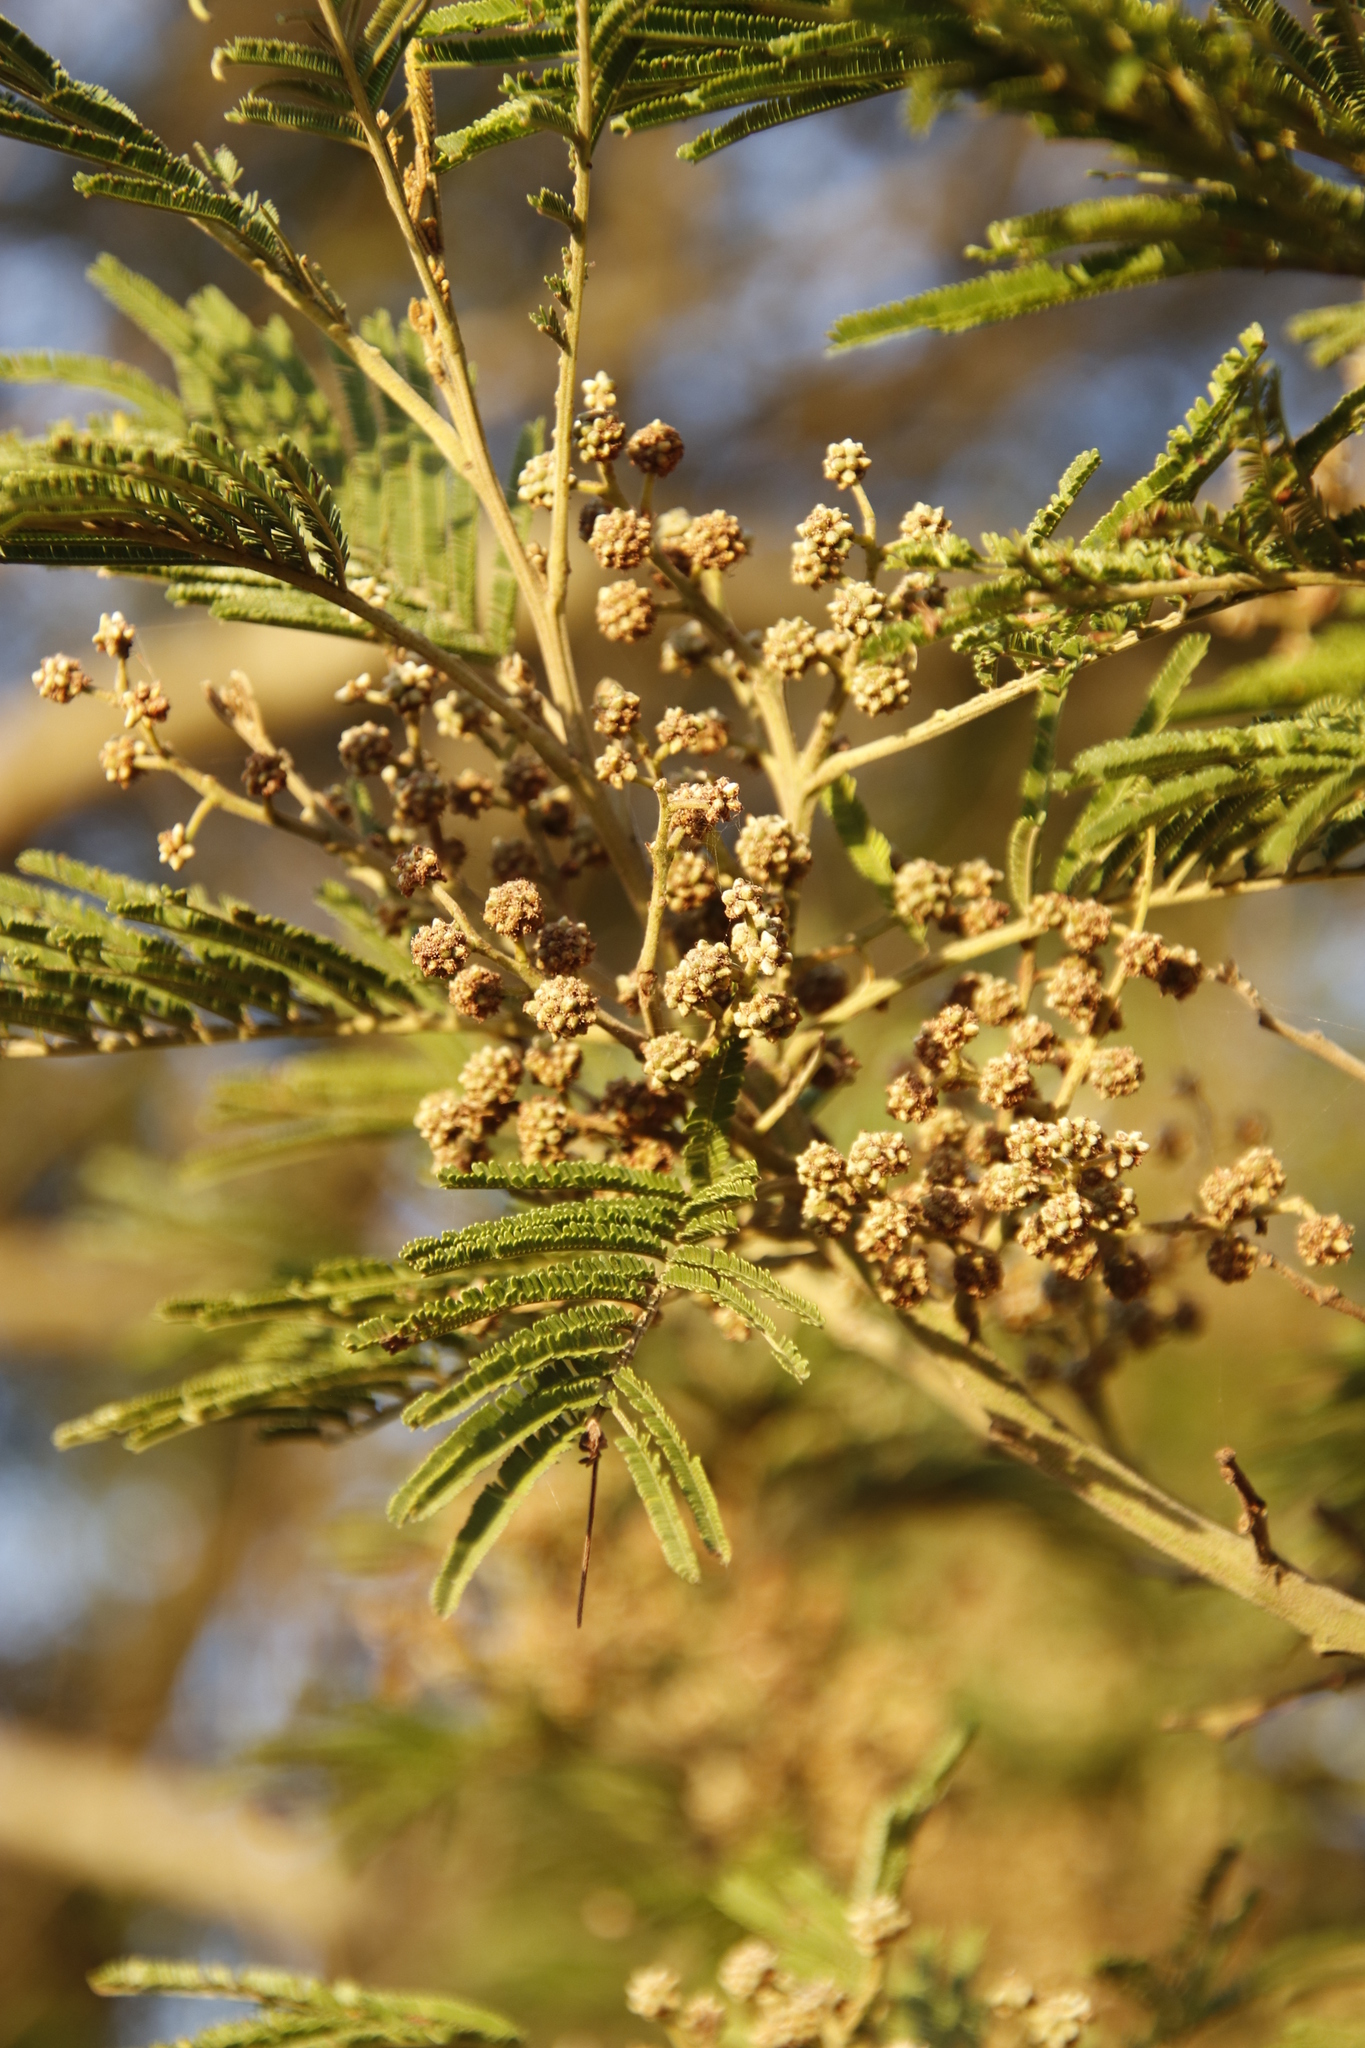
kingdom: Animalia
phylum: Arthropoda
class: Insecta
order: Diptera
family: Cecidomyiidae
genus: Dasineura
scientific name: Dasineura rubiformis
